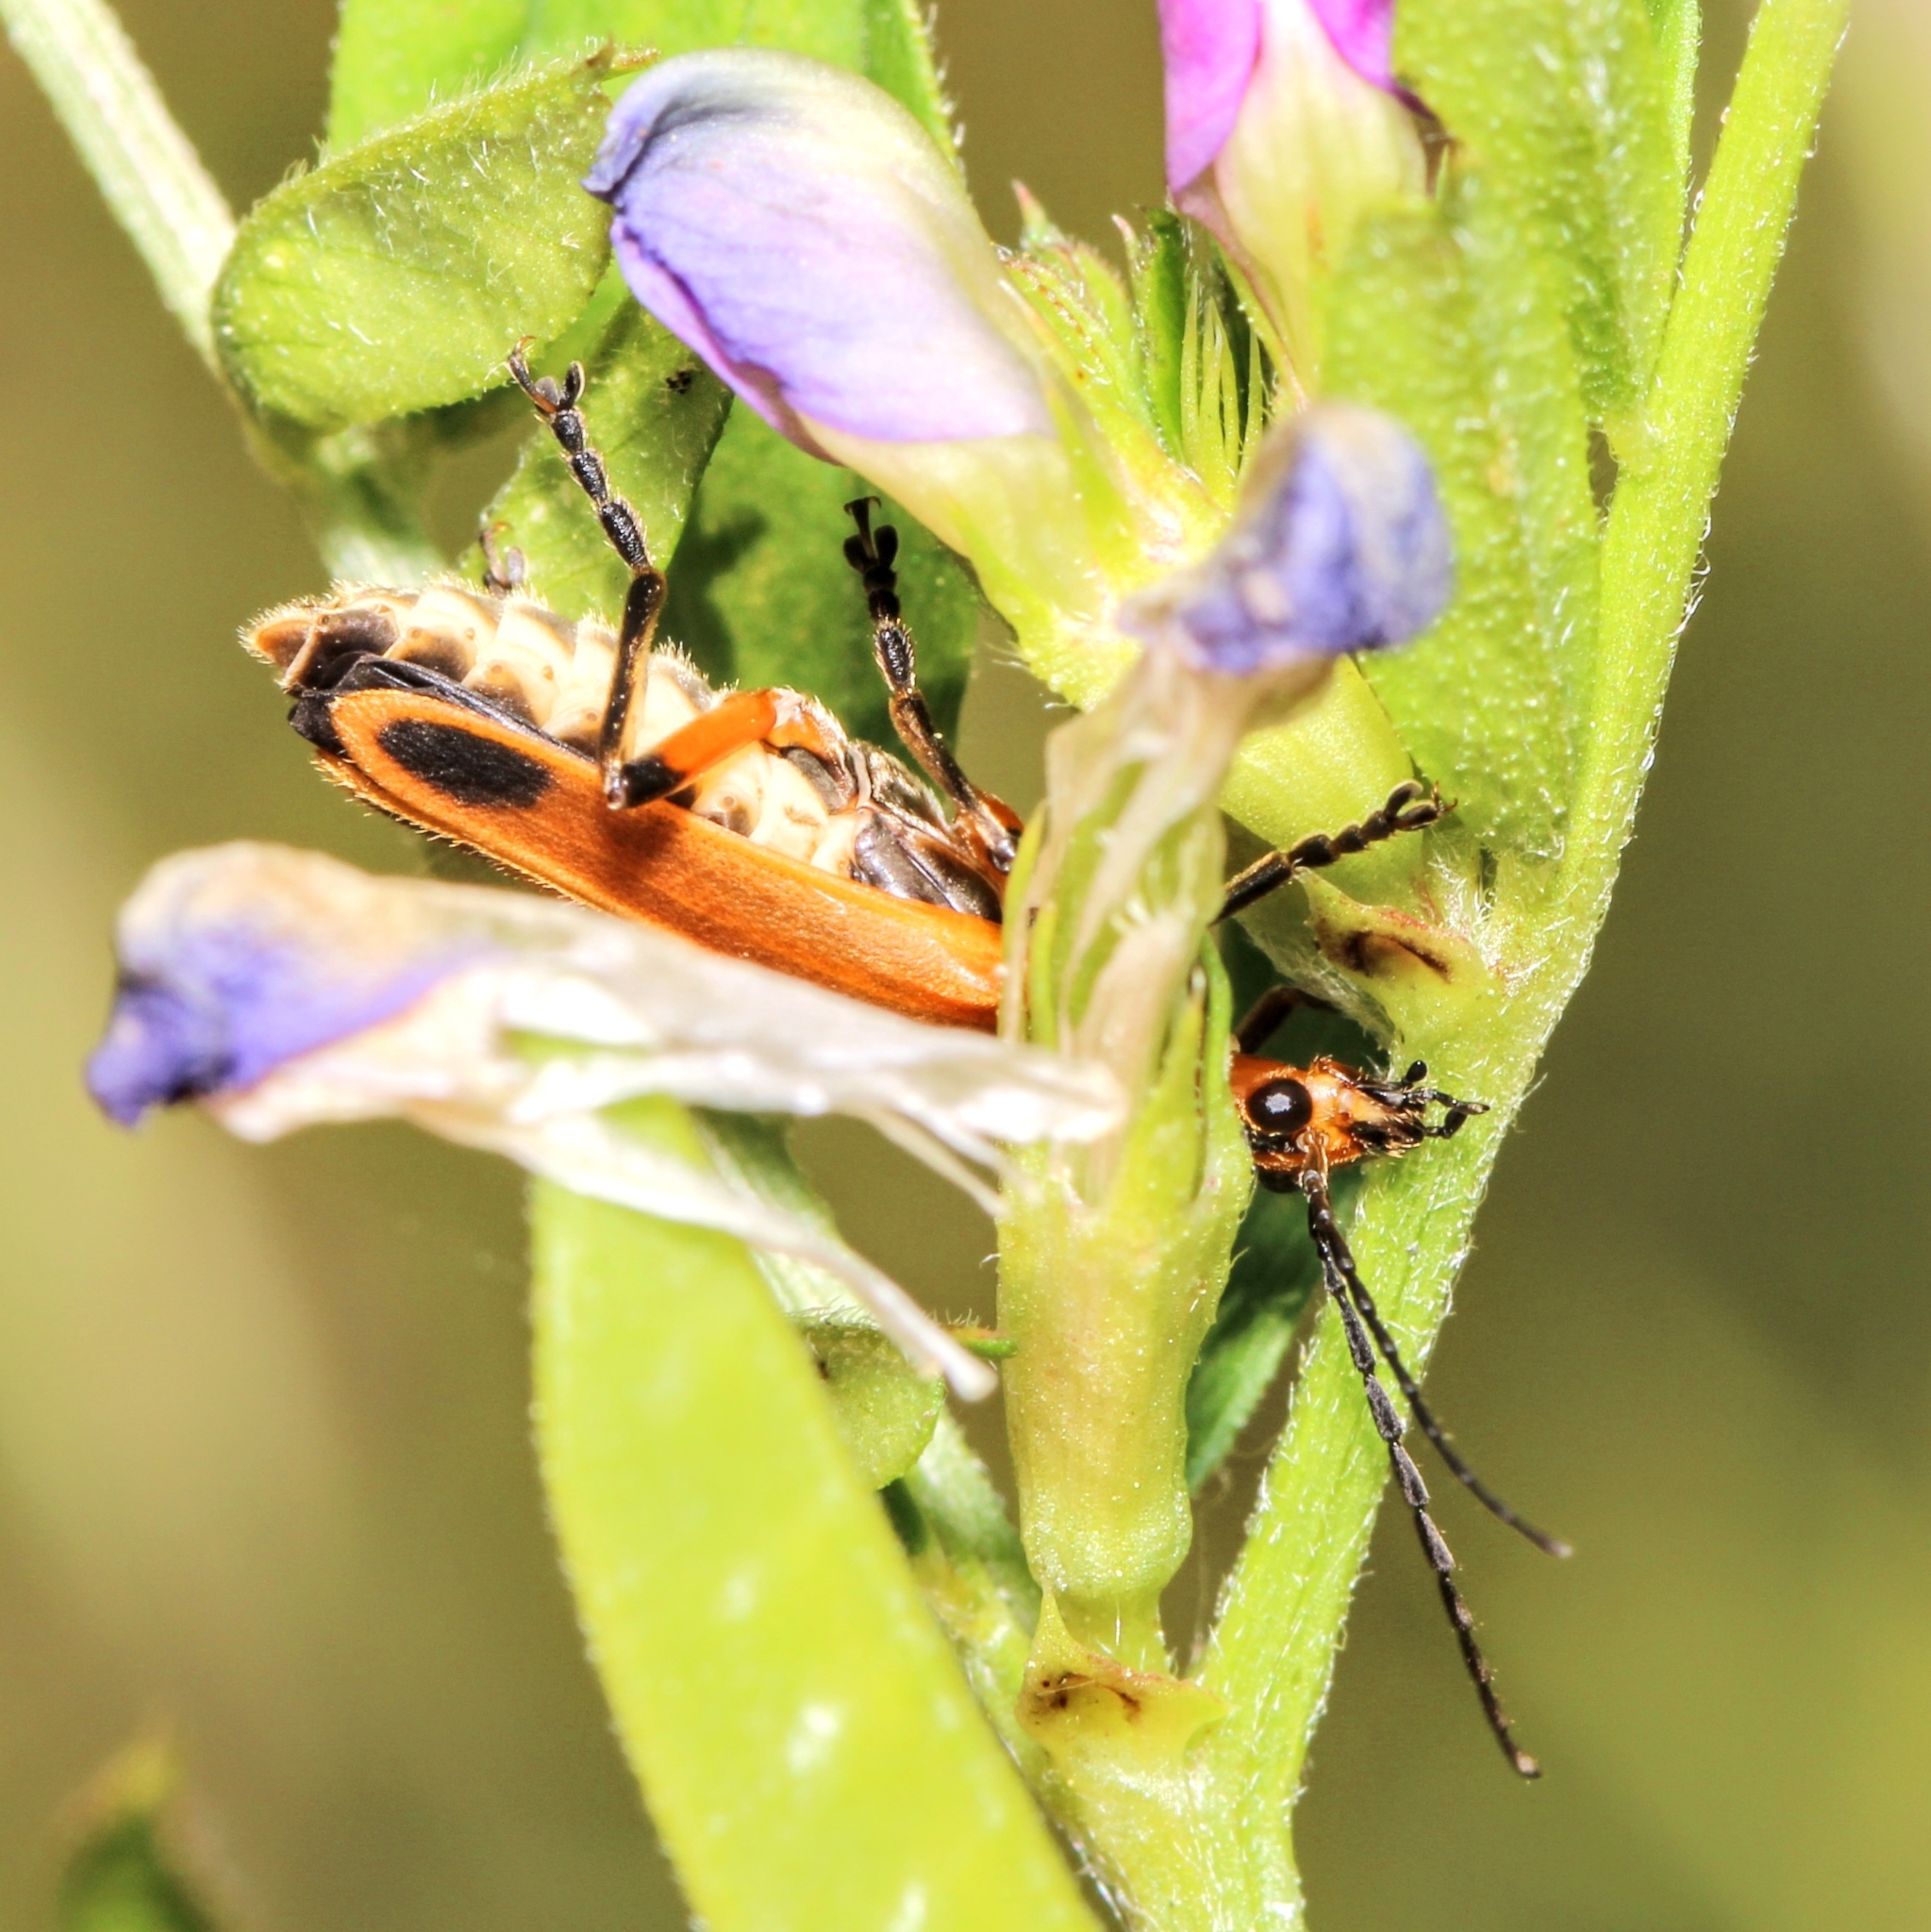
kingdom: Animalia
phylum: Arthropoda
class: Insecta
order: Coleoptera
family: Cantharidae
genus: Chauliognathus
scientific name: Chauliognathus marginatus
